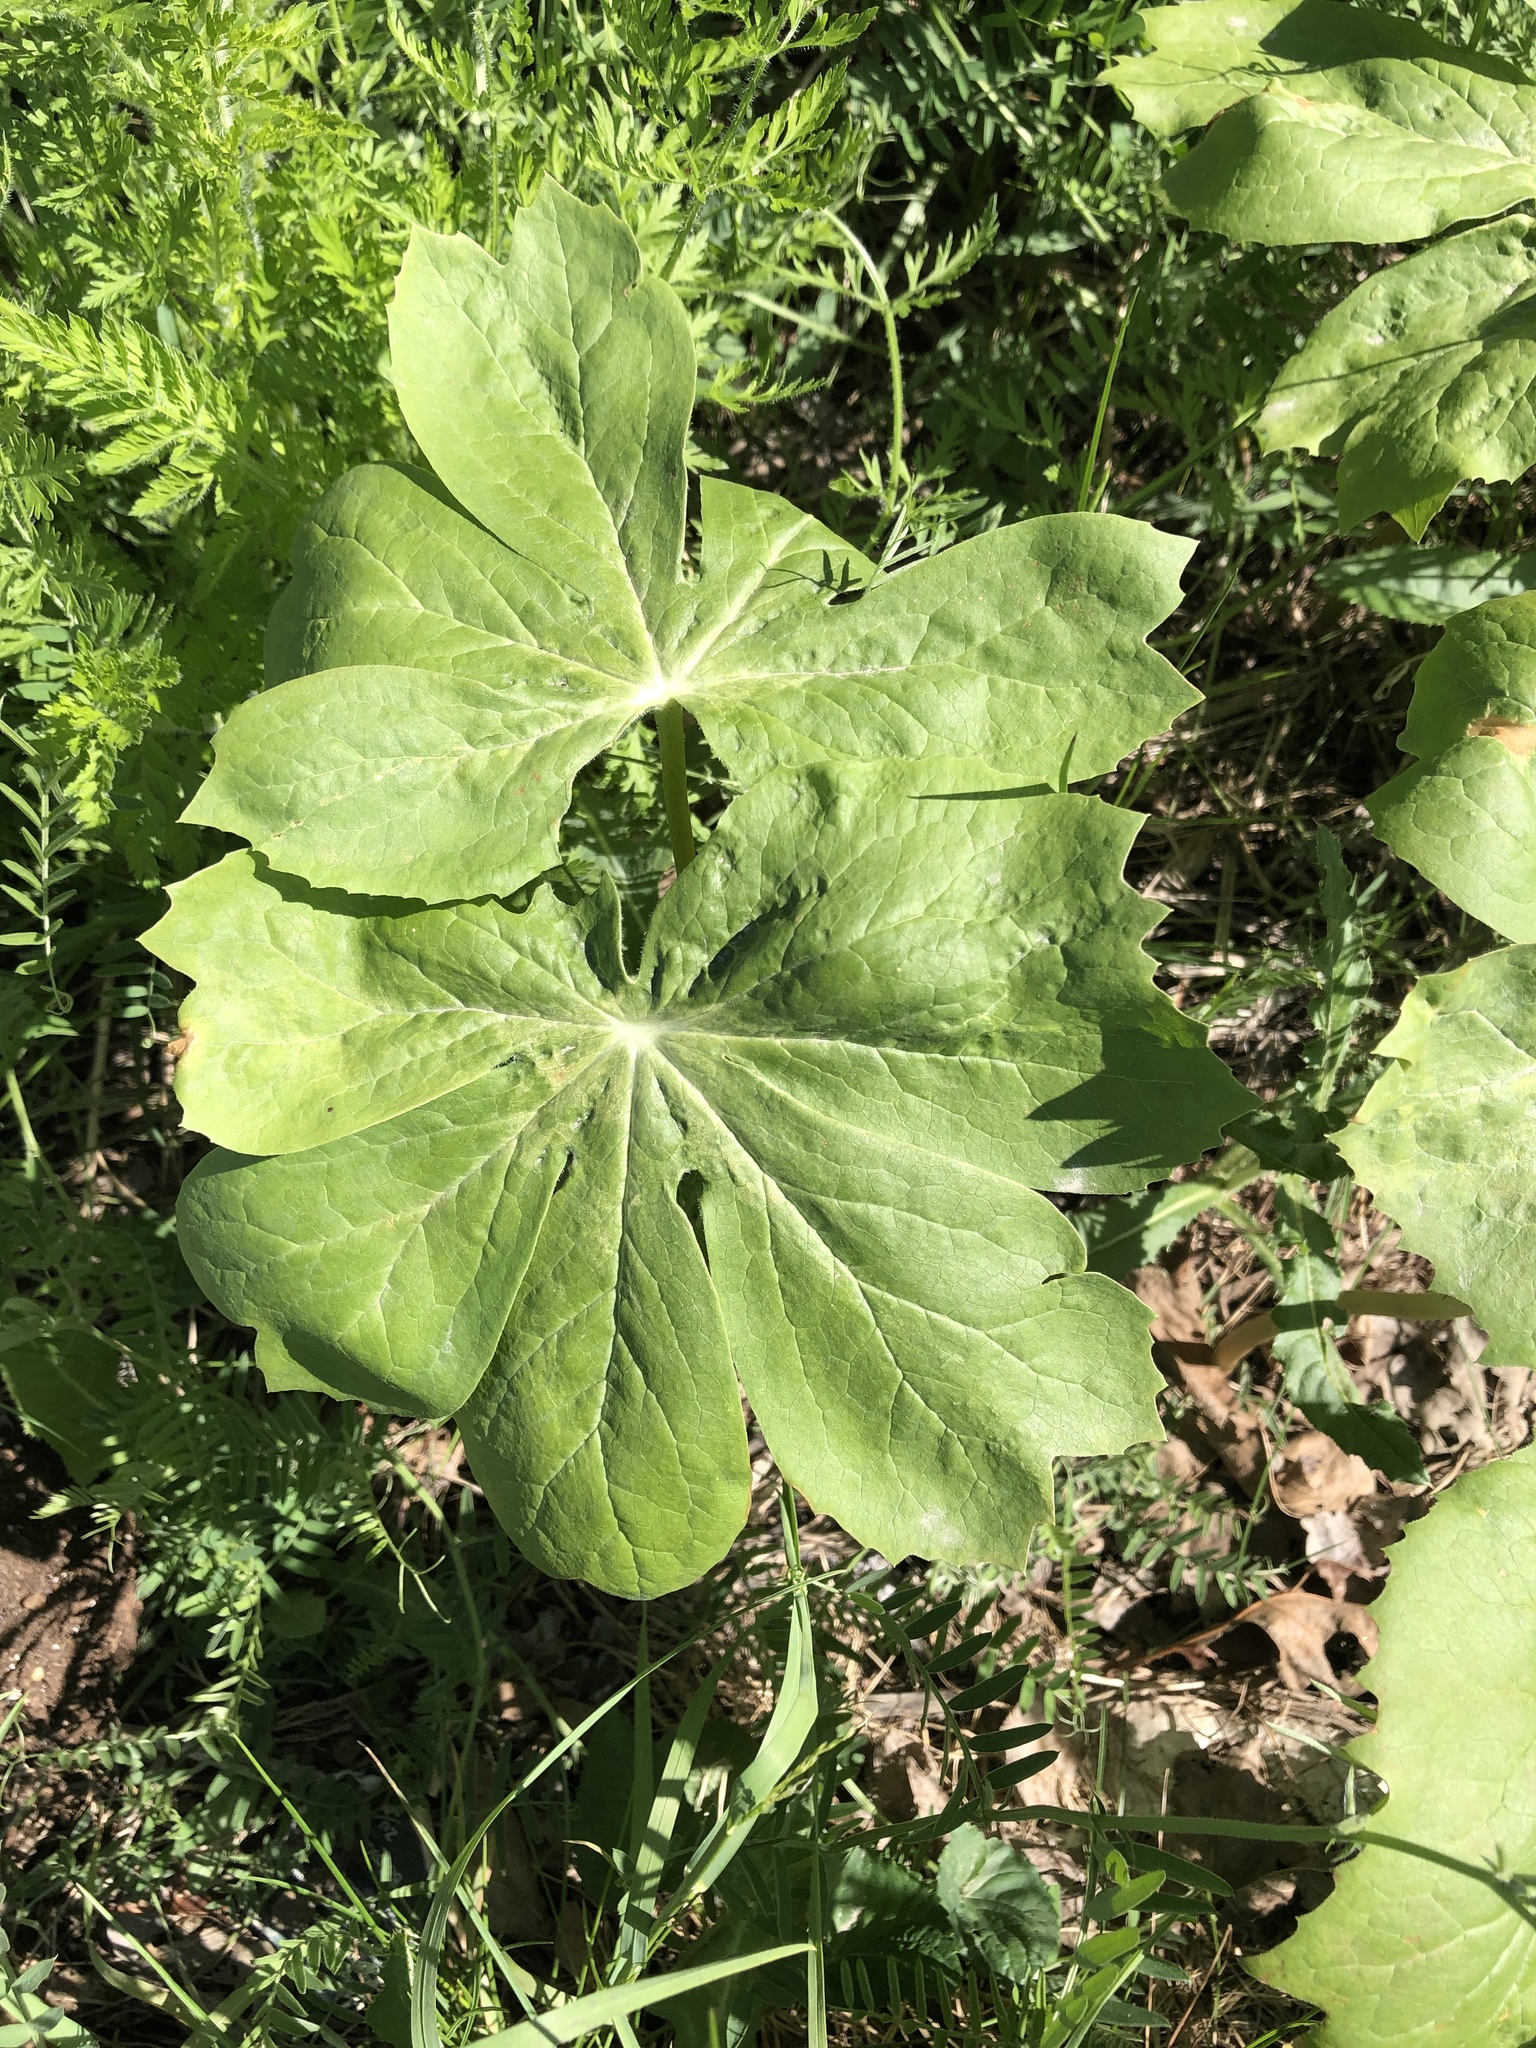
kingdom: Plantae
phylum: Tracheophyta
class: Magnoliopsida
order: Ranunculales
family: Berberidaceae
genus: Podophyllum
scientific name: Podophyllum peltatum
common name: Wild mandrake
